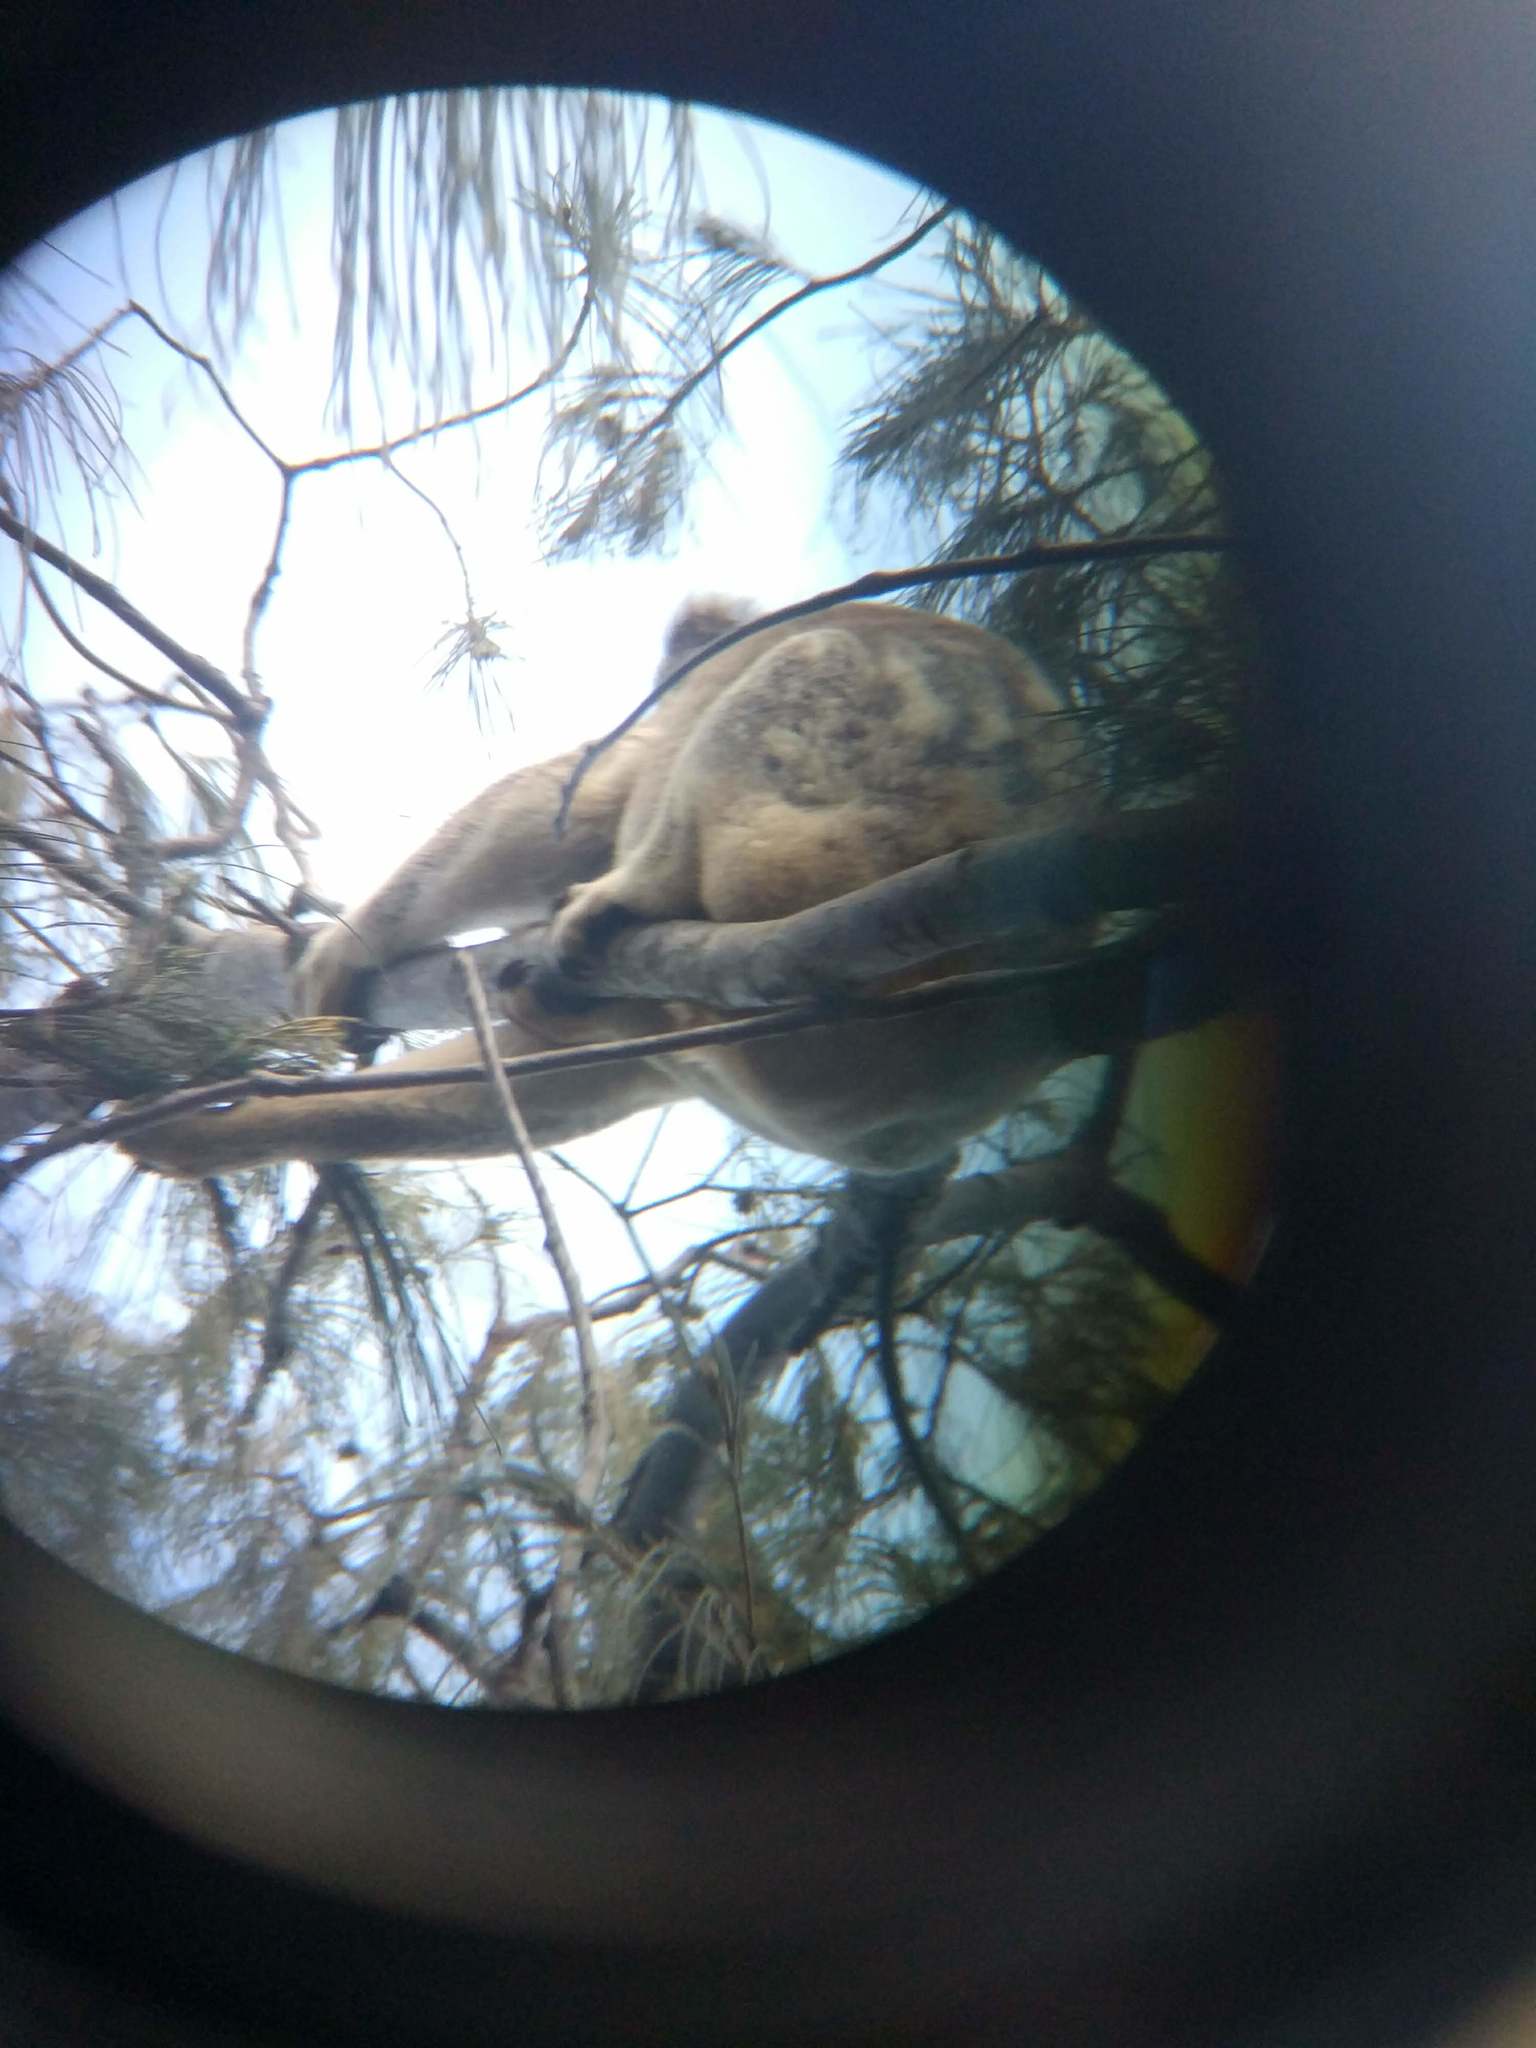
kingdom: Animalia
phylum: Chordata
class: Mammalia
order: Diprotodontia
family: Phascolarctidae
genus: Phascolarctos
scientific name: Phascolarctos cinereus
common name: Koala
